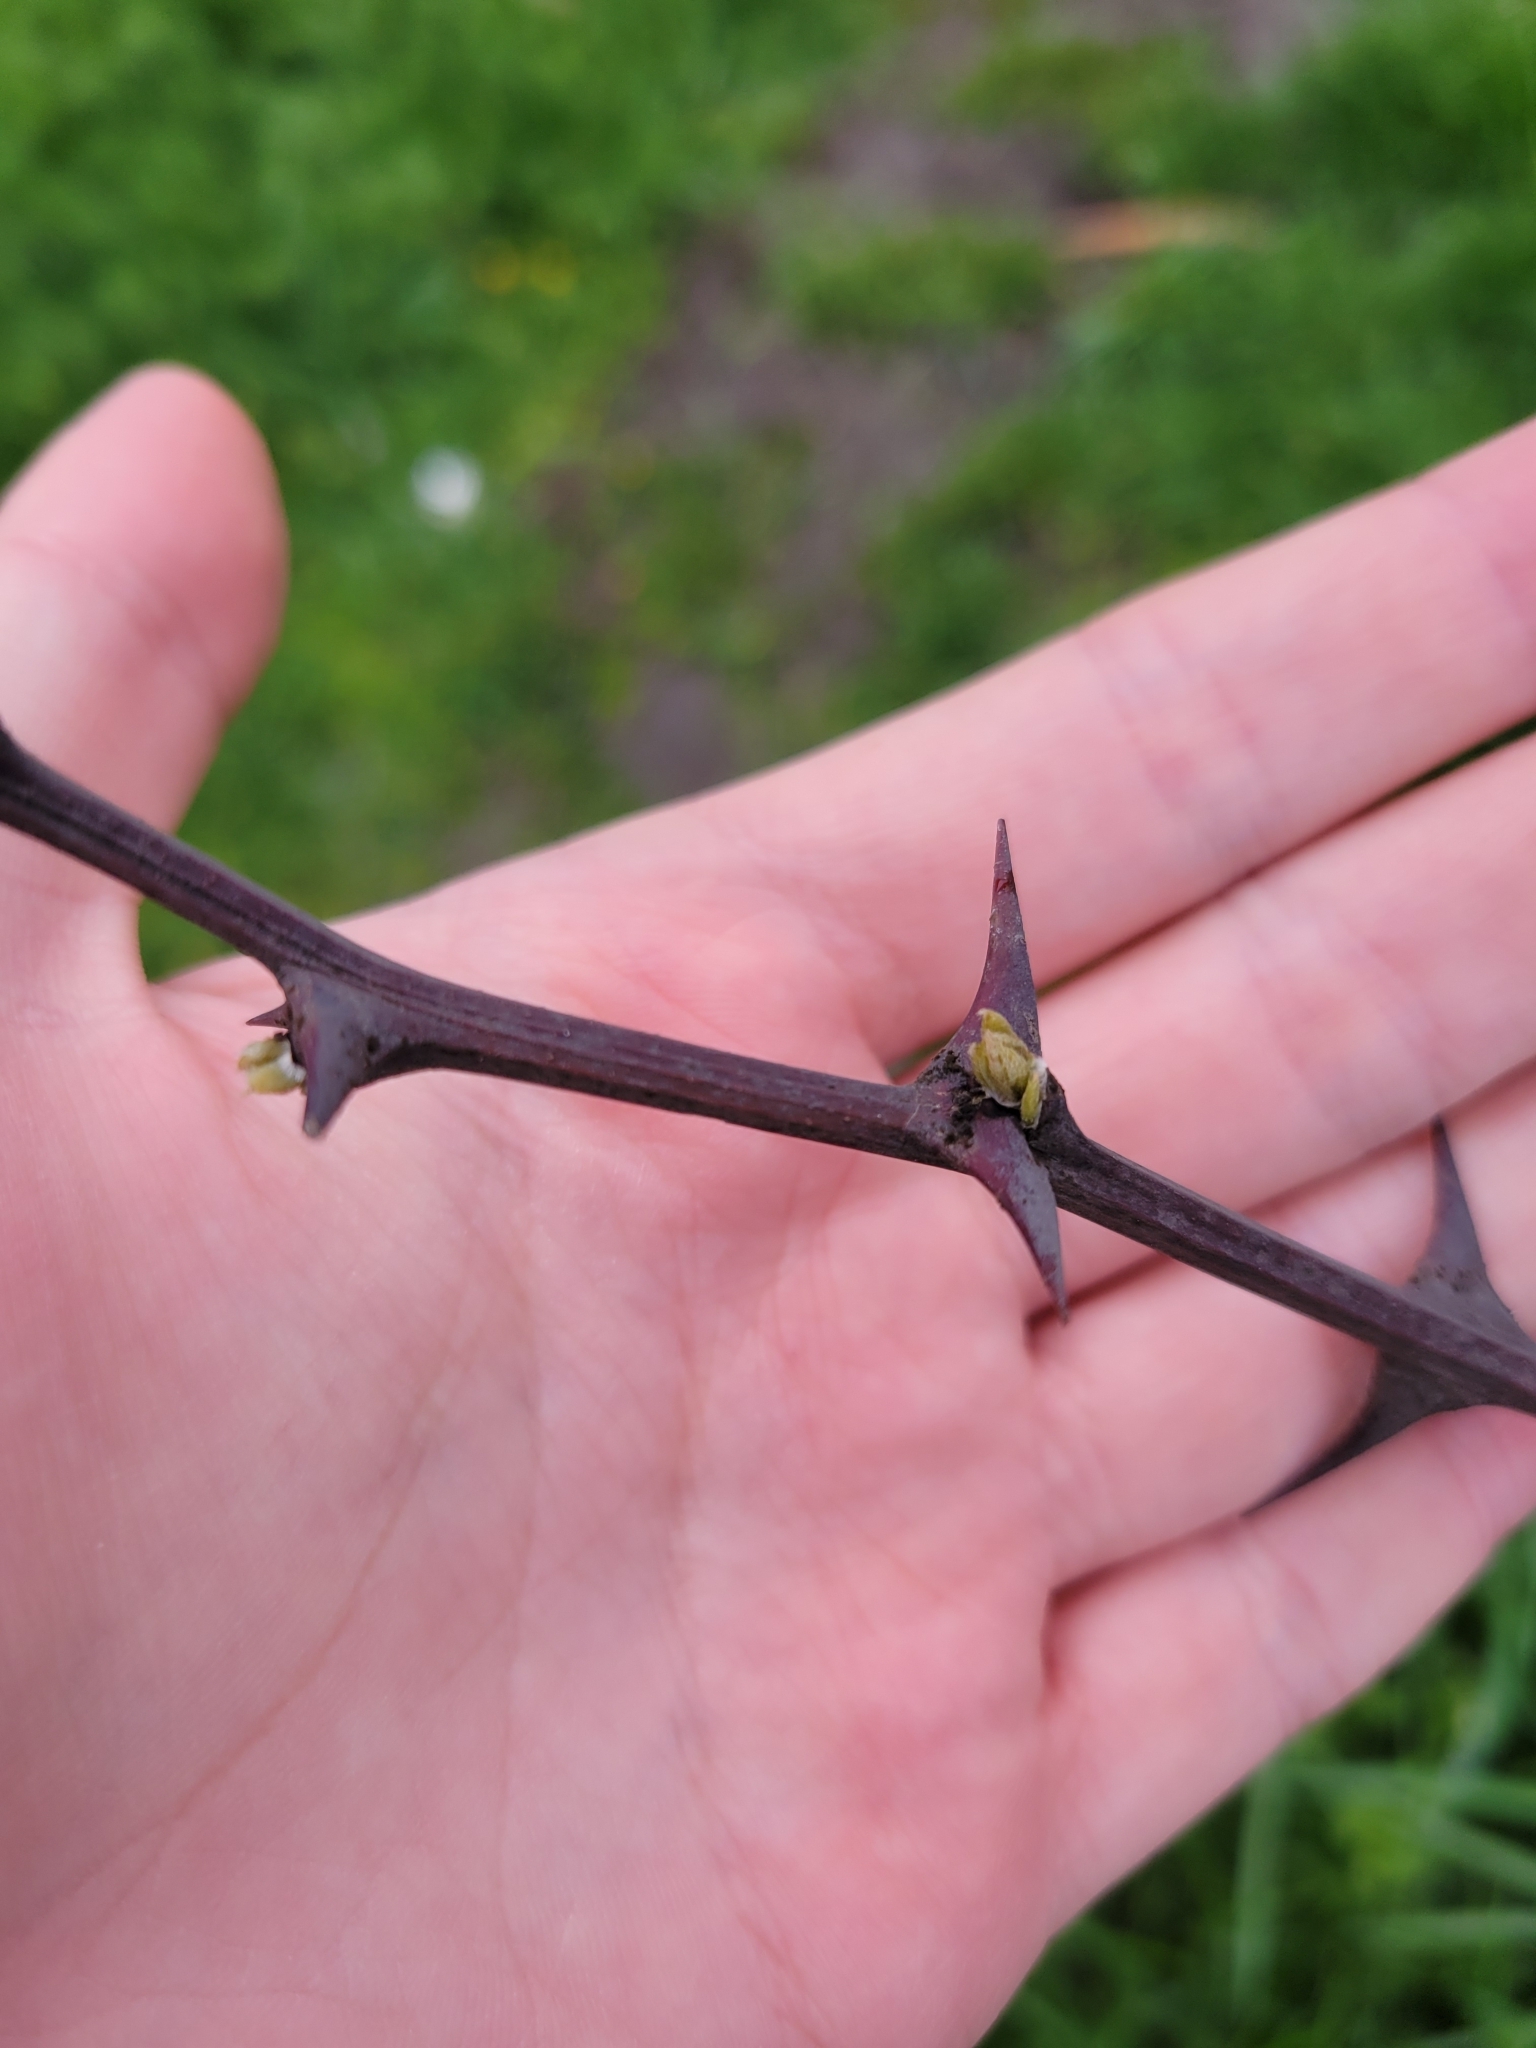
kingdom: Plantae
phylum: Tracheophyta
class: Magnoliopsida
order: Fabales
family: Fabaceae
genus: Robinia
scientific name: Robinia pseudoacacia
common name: Black locust
